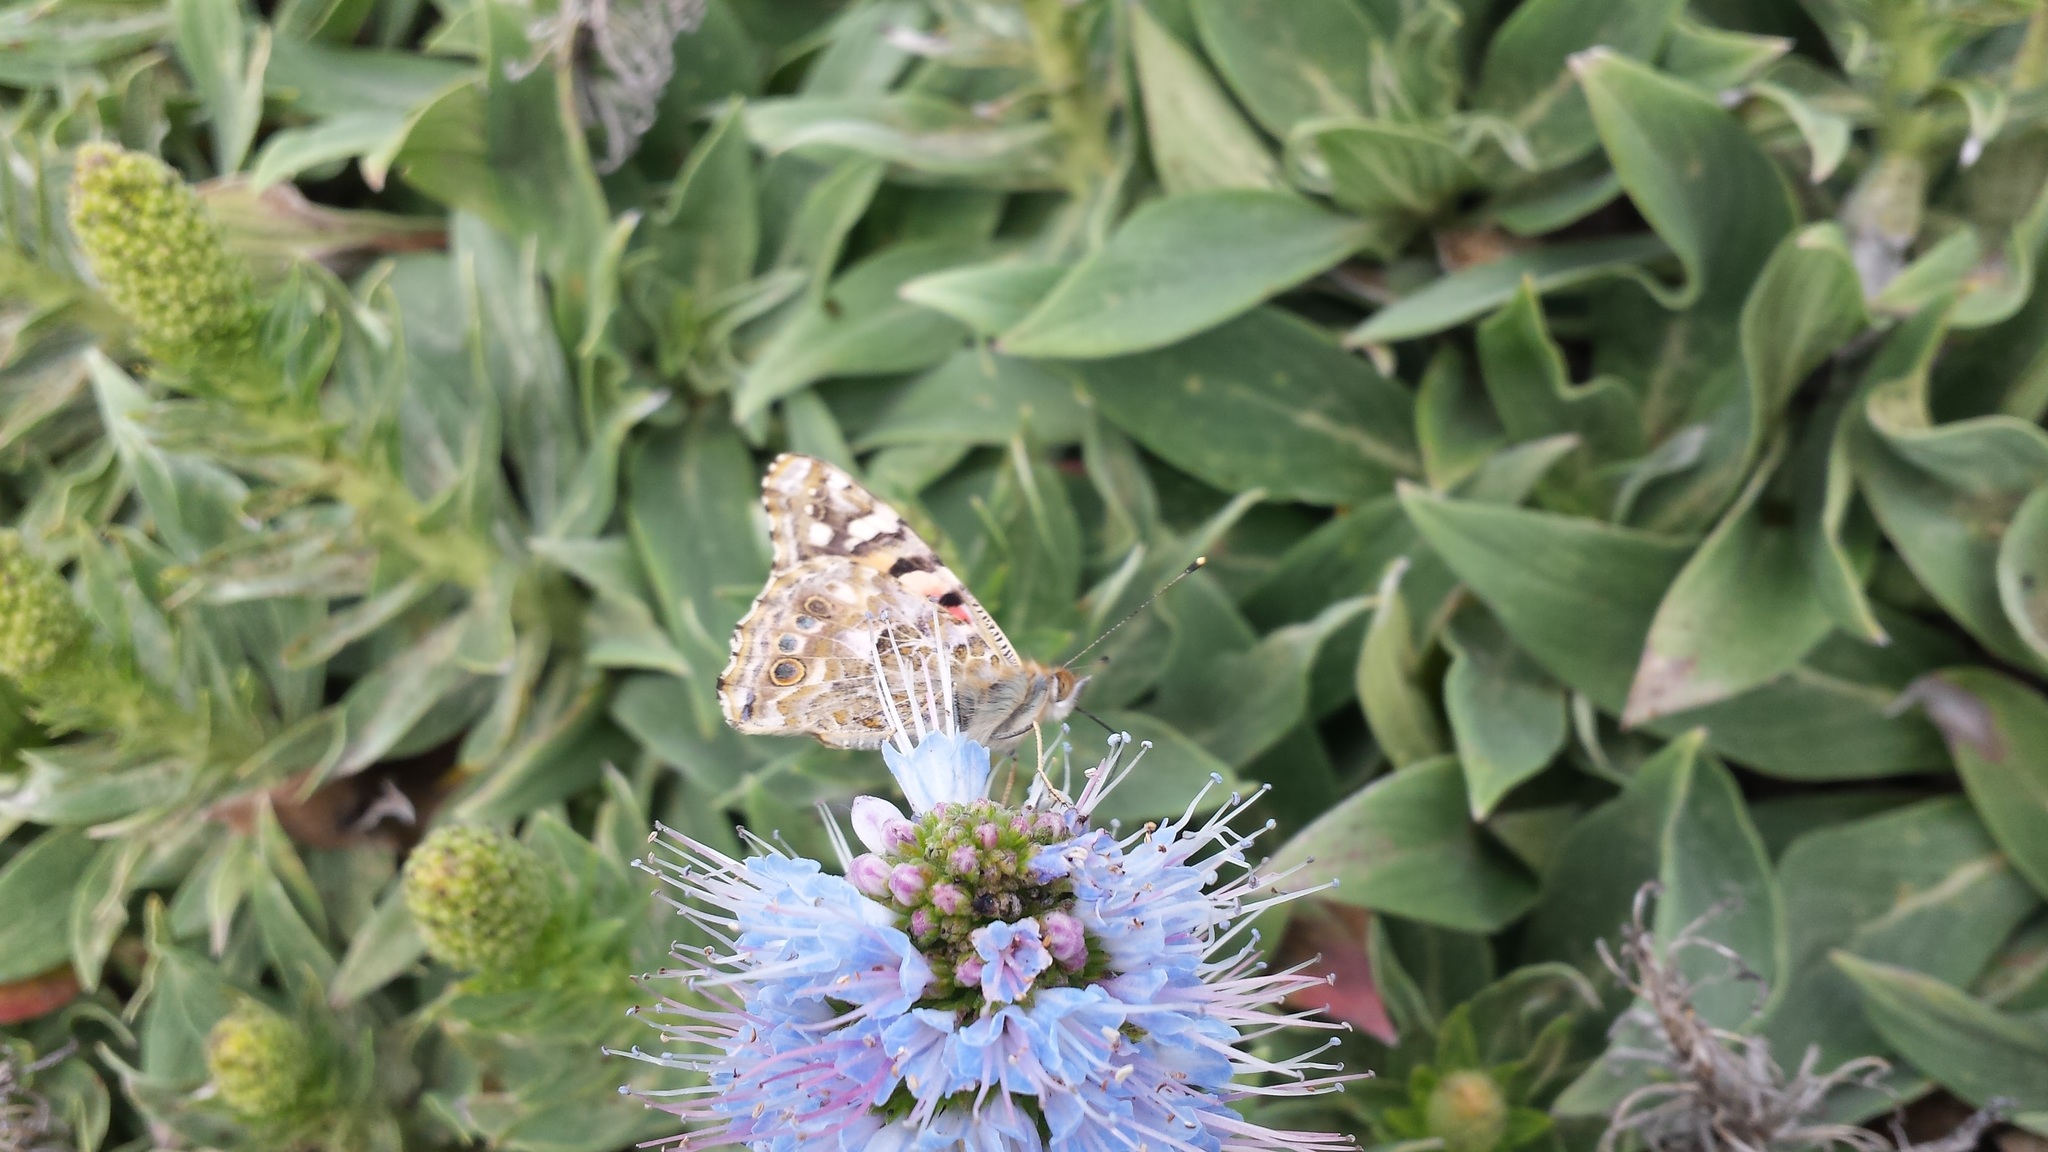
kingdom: Animalia
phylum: Arthropoda
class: Insecta
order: Lepidoptera
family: Nymphalidae
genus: Vanessa
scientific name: Vanessa cardui
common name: Painted lady
